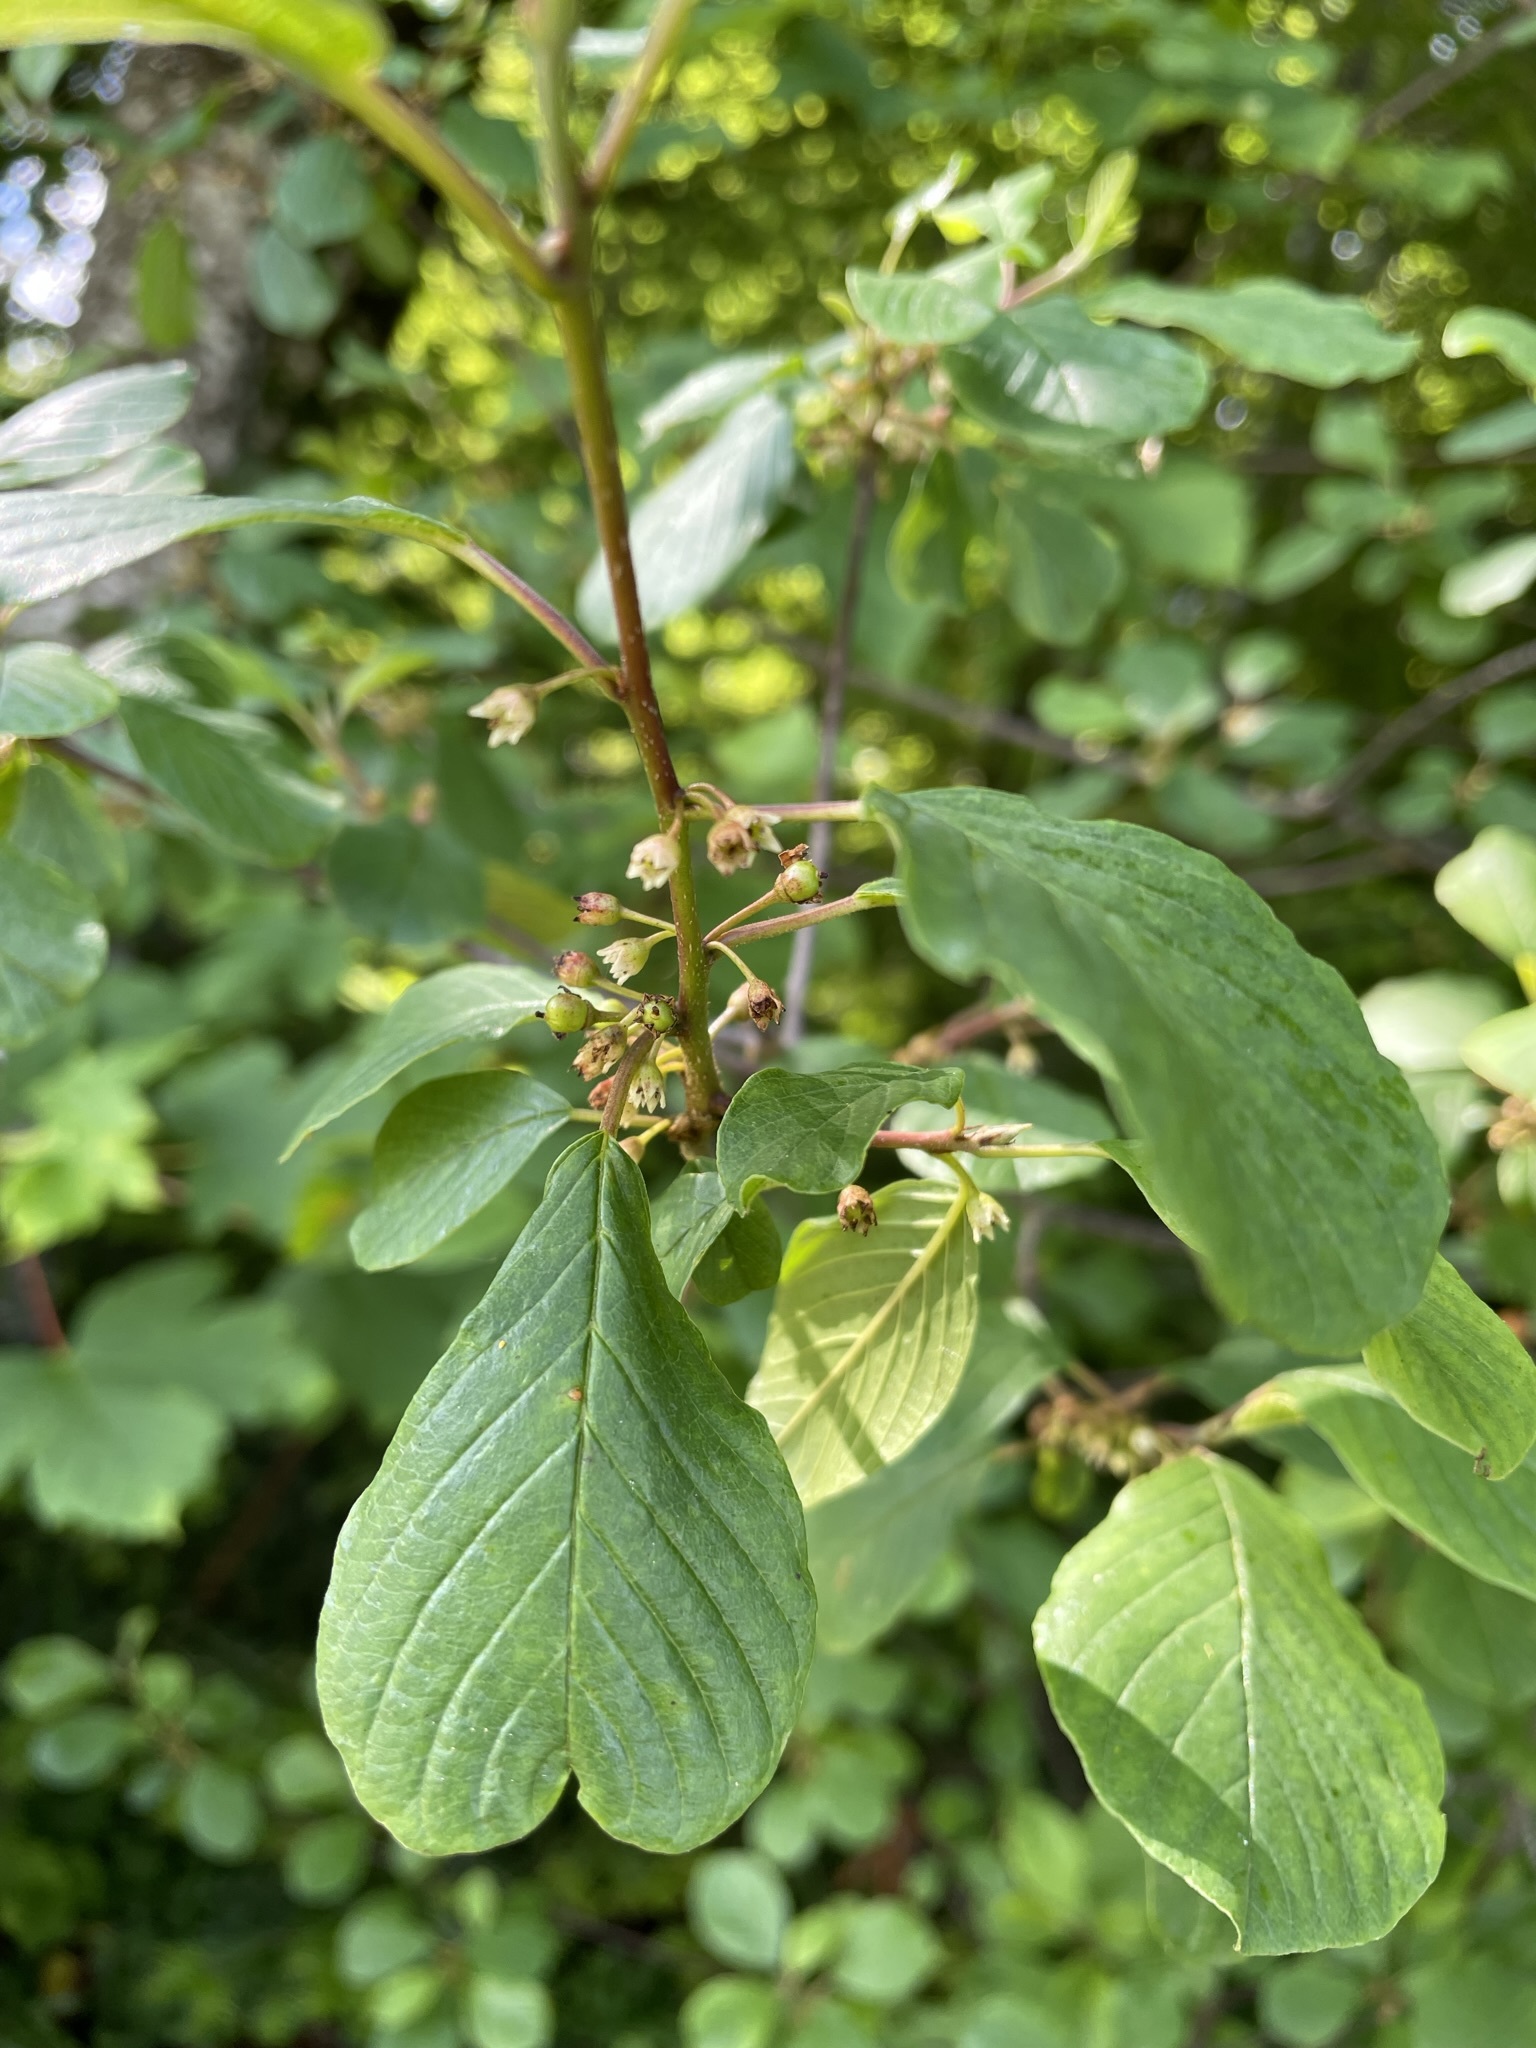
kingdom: Plantae
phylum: Tracheophyta
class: Magnoliopsida
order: Rosales
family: Rhamnaceae
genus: Frangula
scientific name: Frangula alnus
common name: Alder buckthorn
